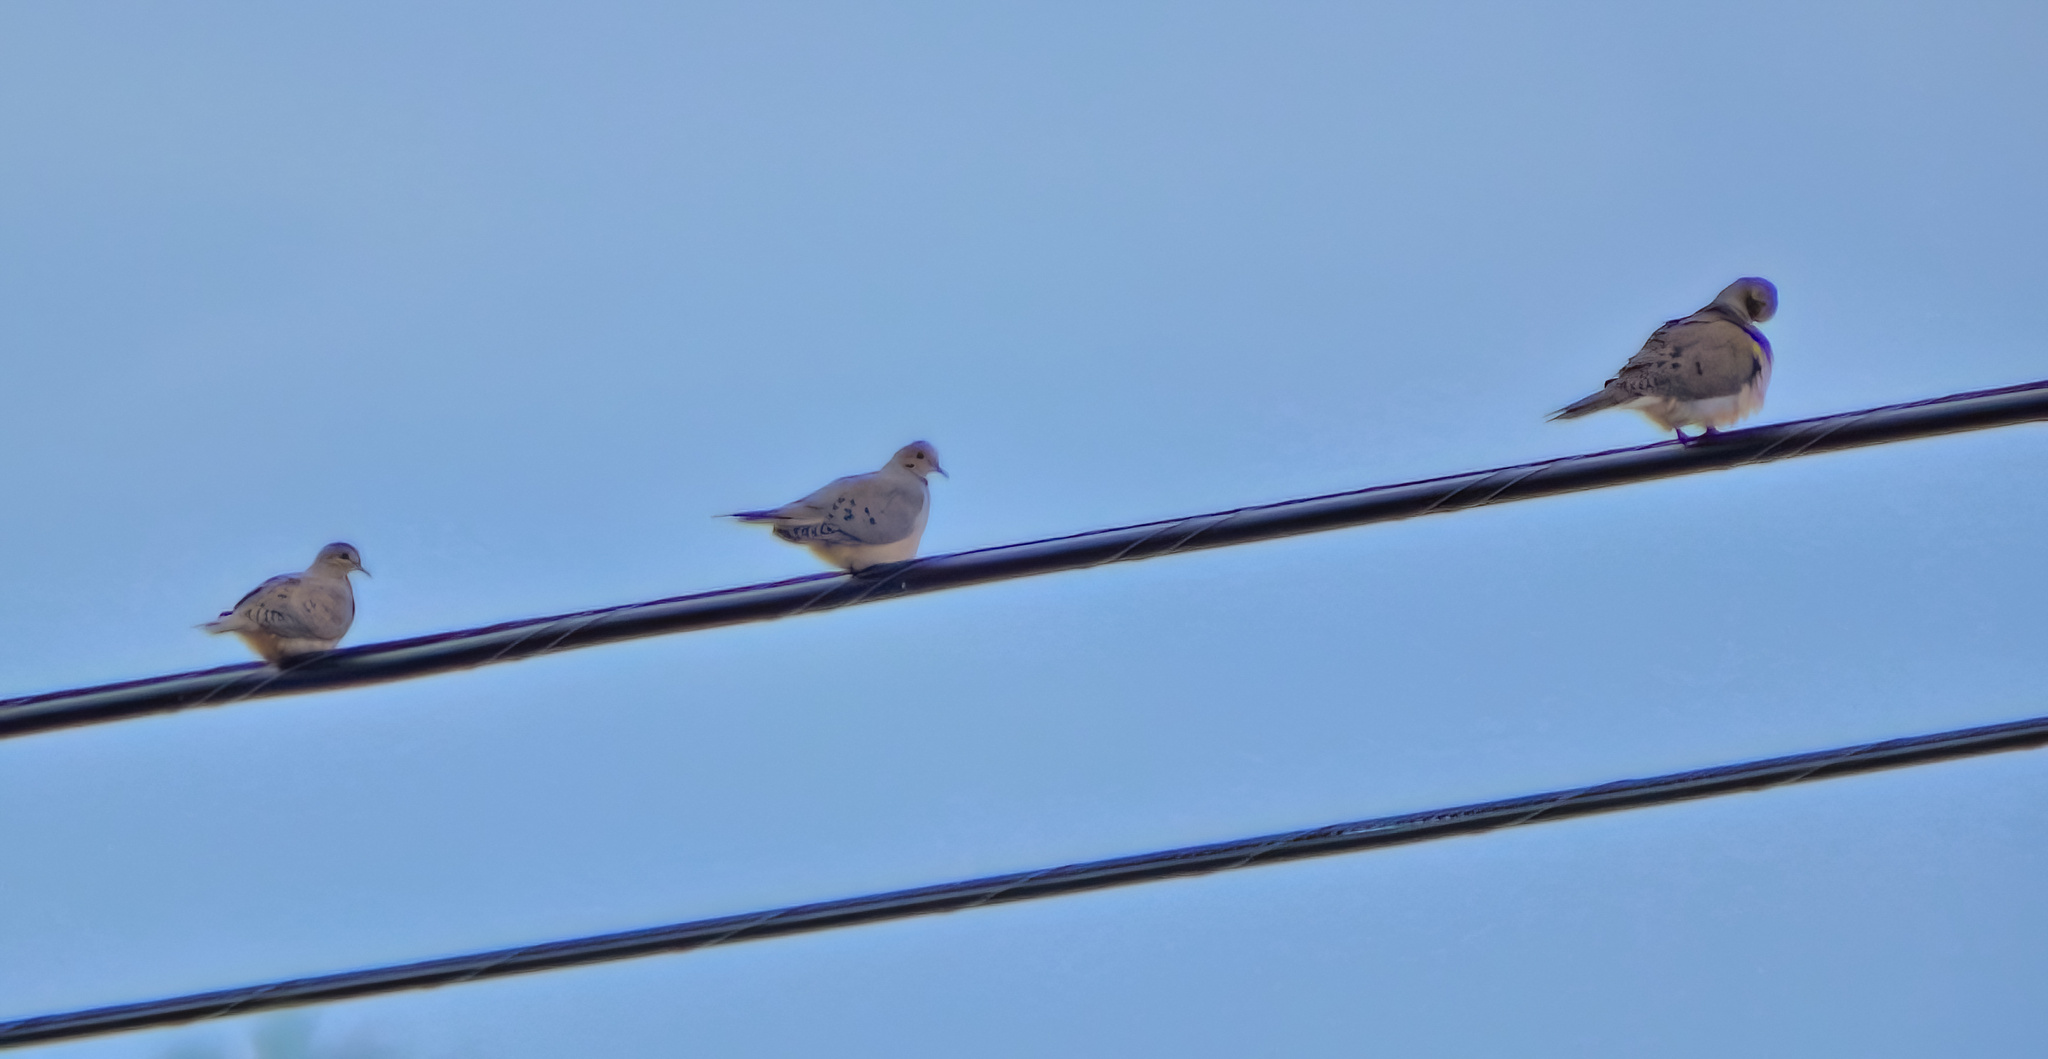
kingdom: Animalia
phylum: Chordata
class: Aves
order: Columbiformes
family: Columbidae
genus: Zenaida
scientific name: Zenaida macroura
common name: Mourning dove
